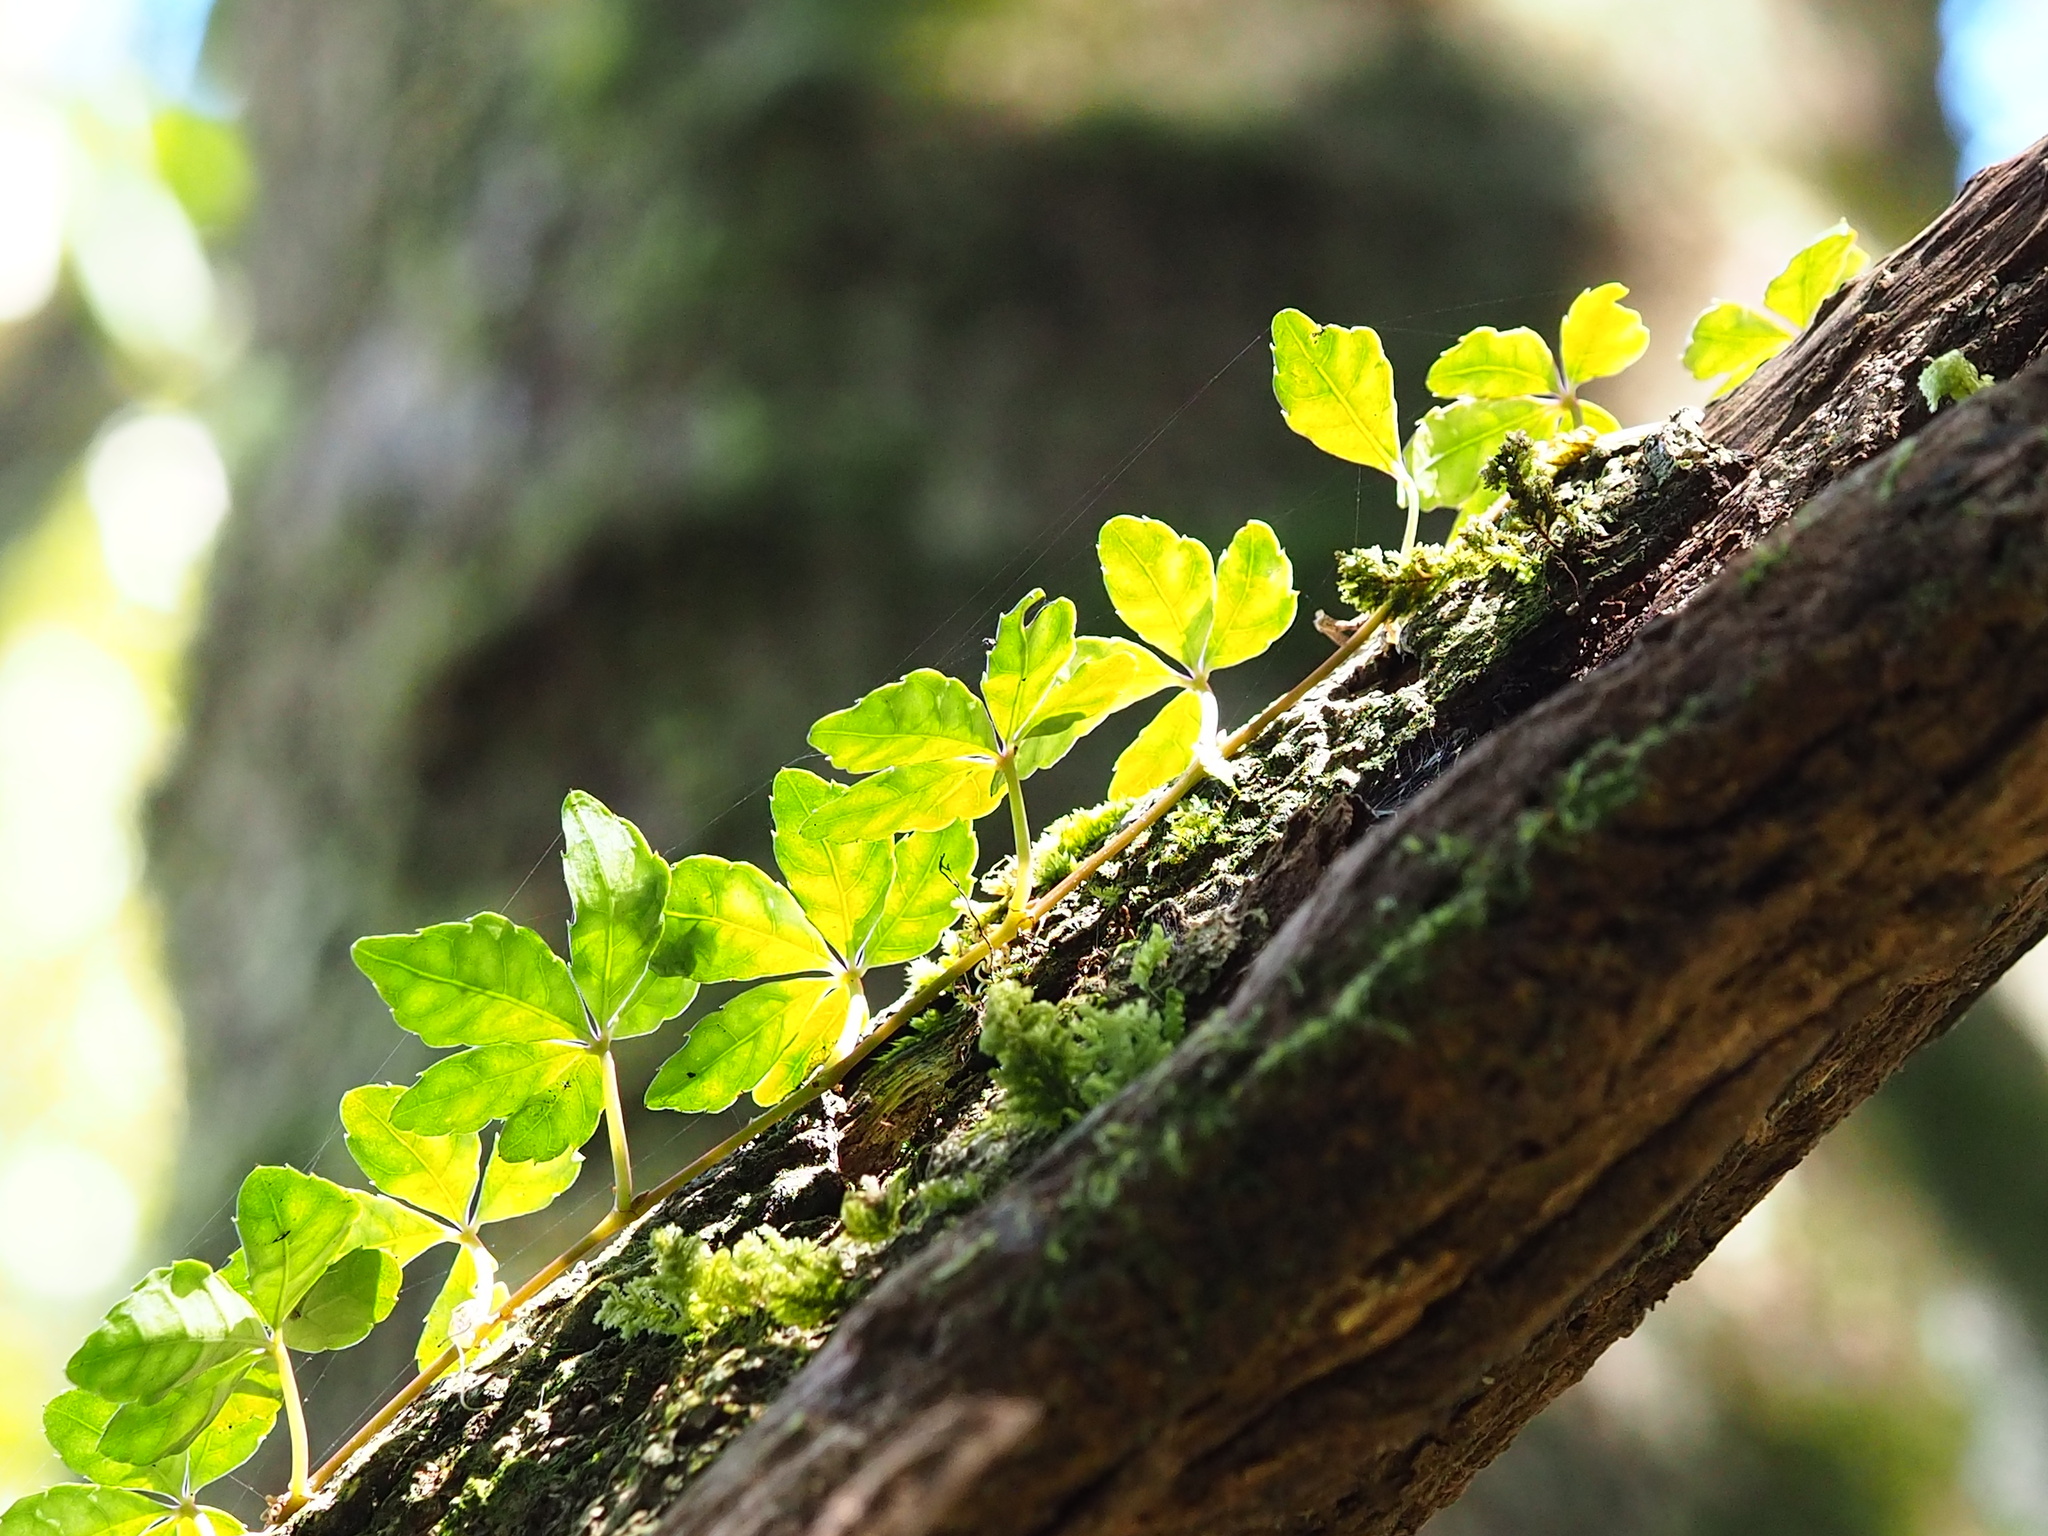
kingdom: Plantae
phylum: Tracheophyta
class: Magnoliopsida
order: Vitales
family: Vitaceae
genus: Tetrastigma
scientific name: Tetrastigma obtectum
